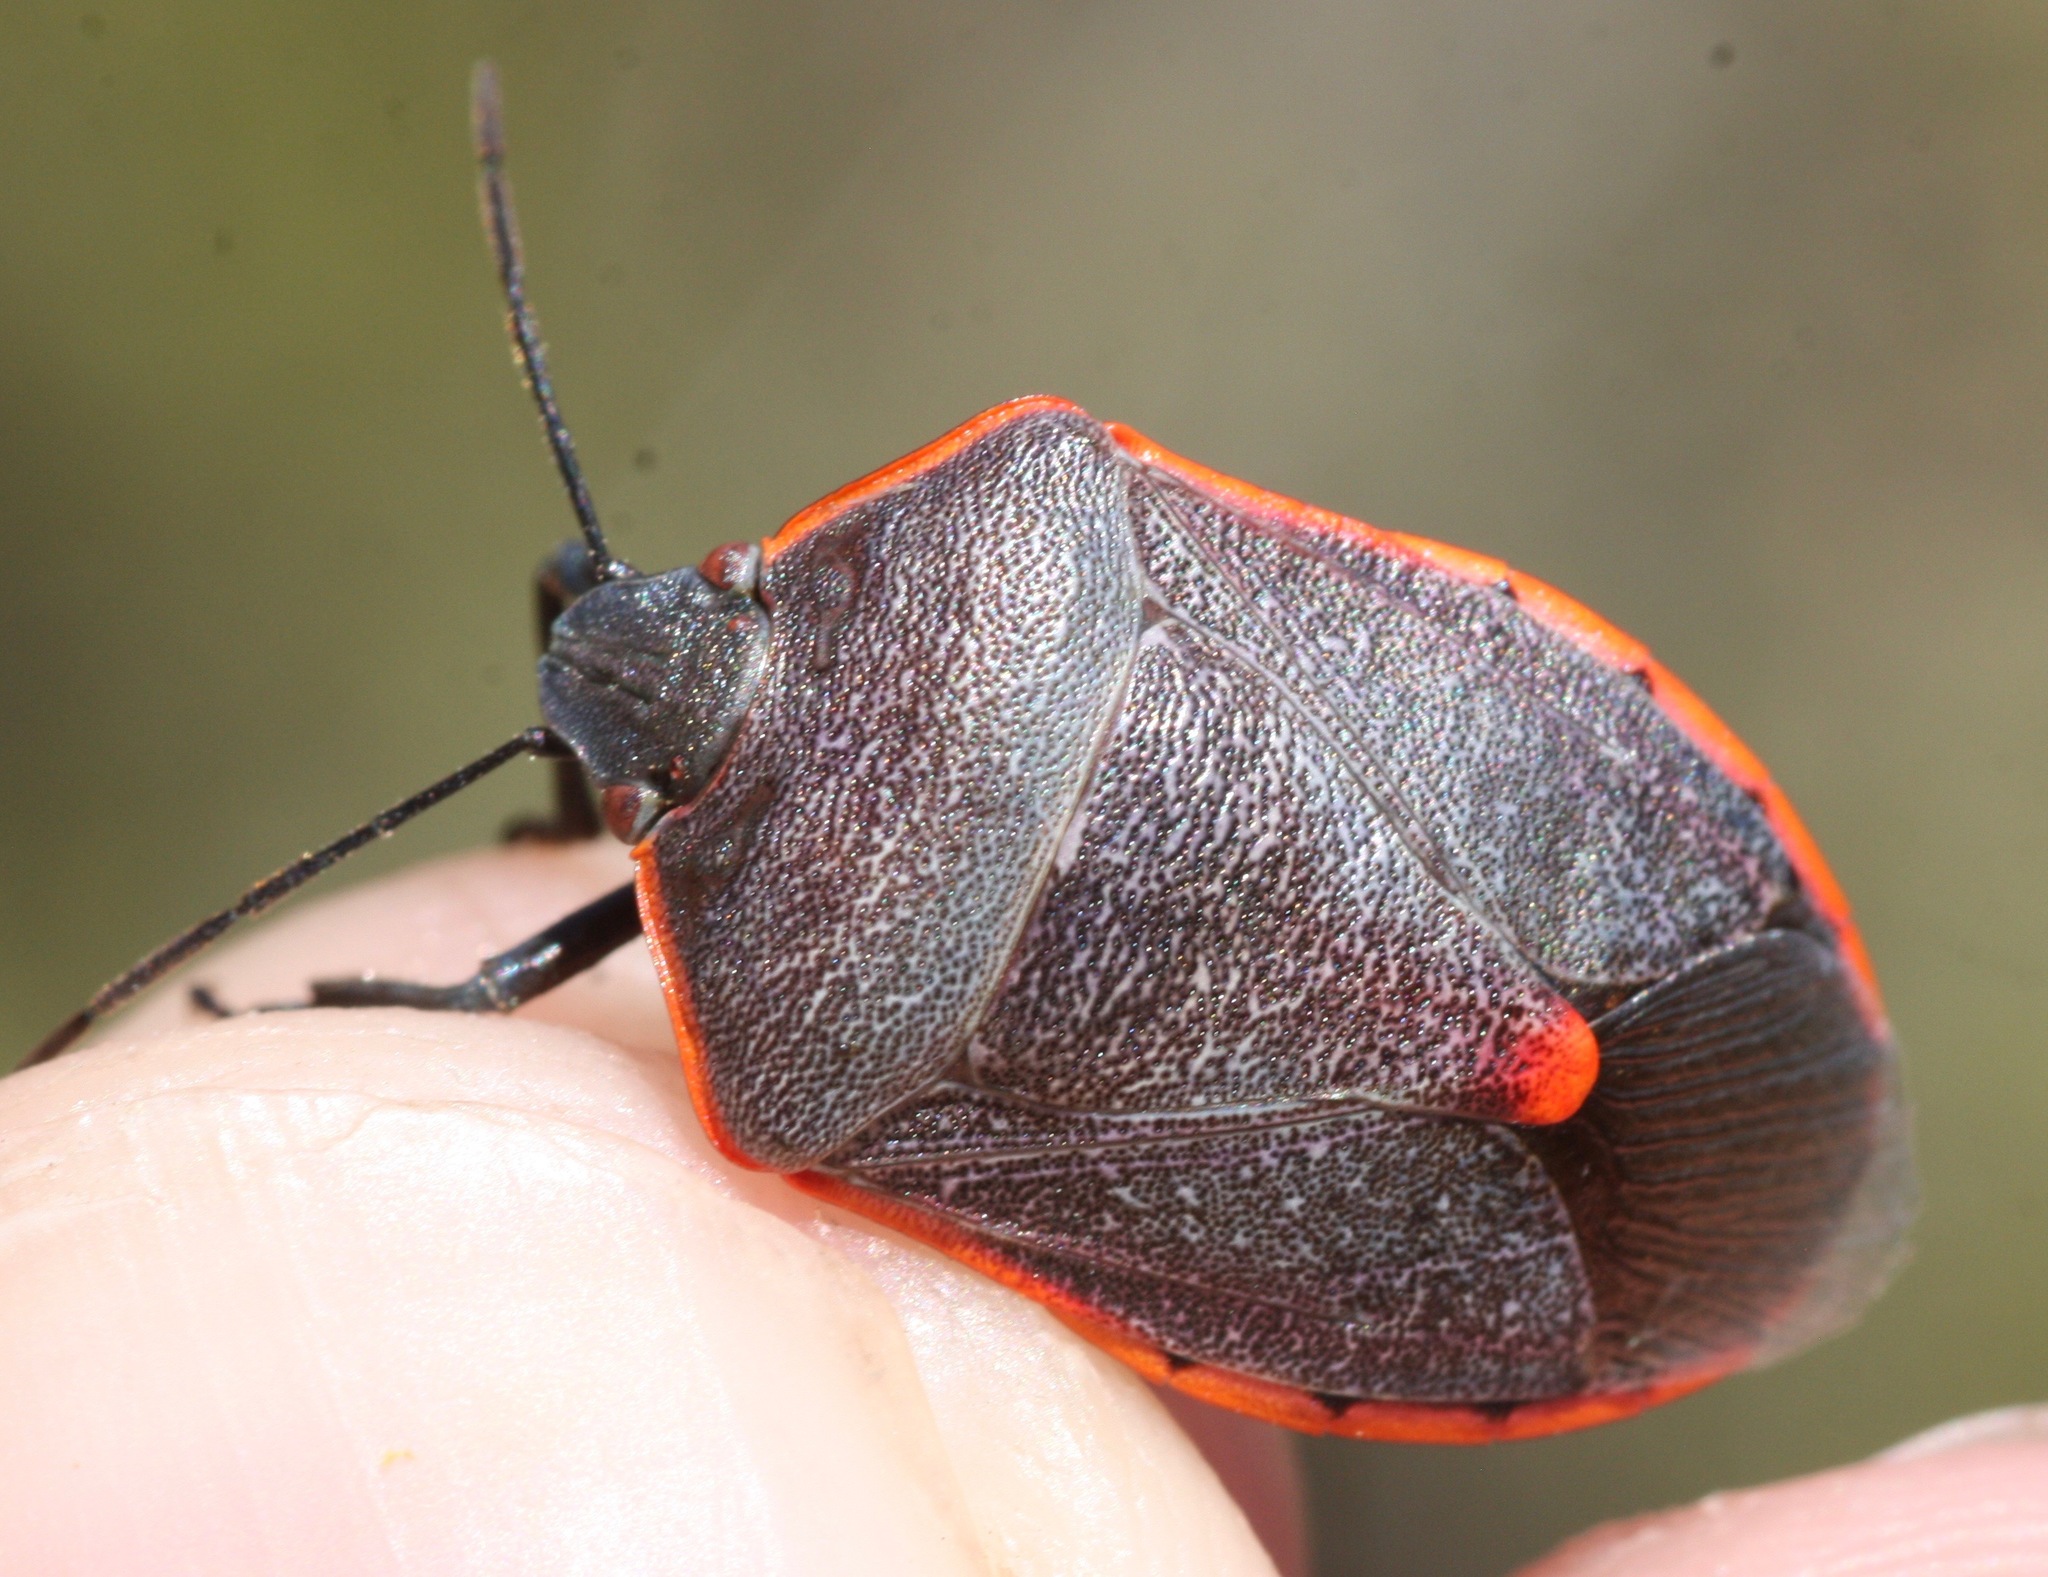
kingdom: Animalia
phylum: Arthropoda
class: Insecta
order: Hemiptera
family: Pentatomidae
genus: Chlorochroa
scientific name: Chlorochroa ligata
